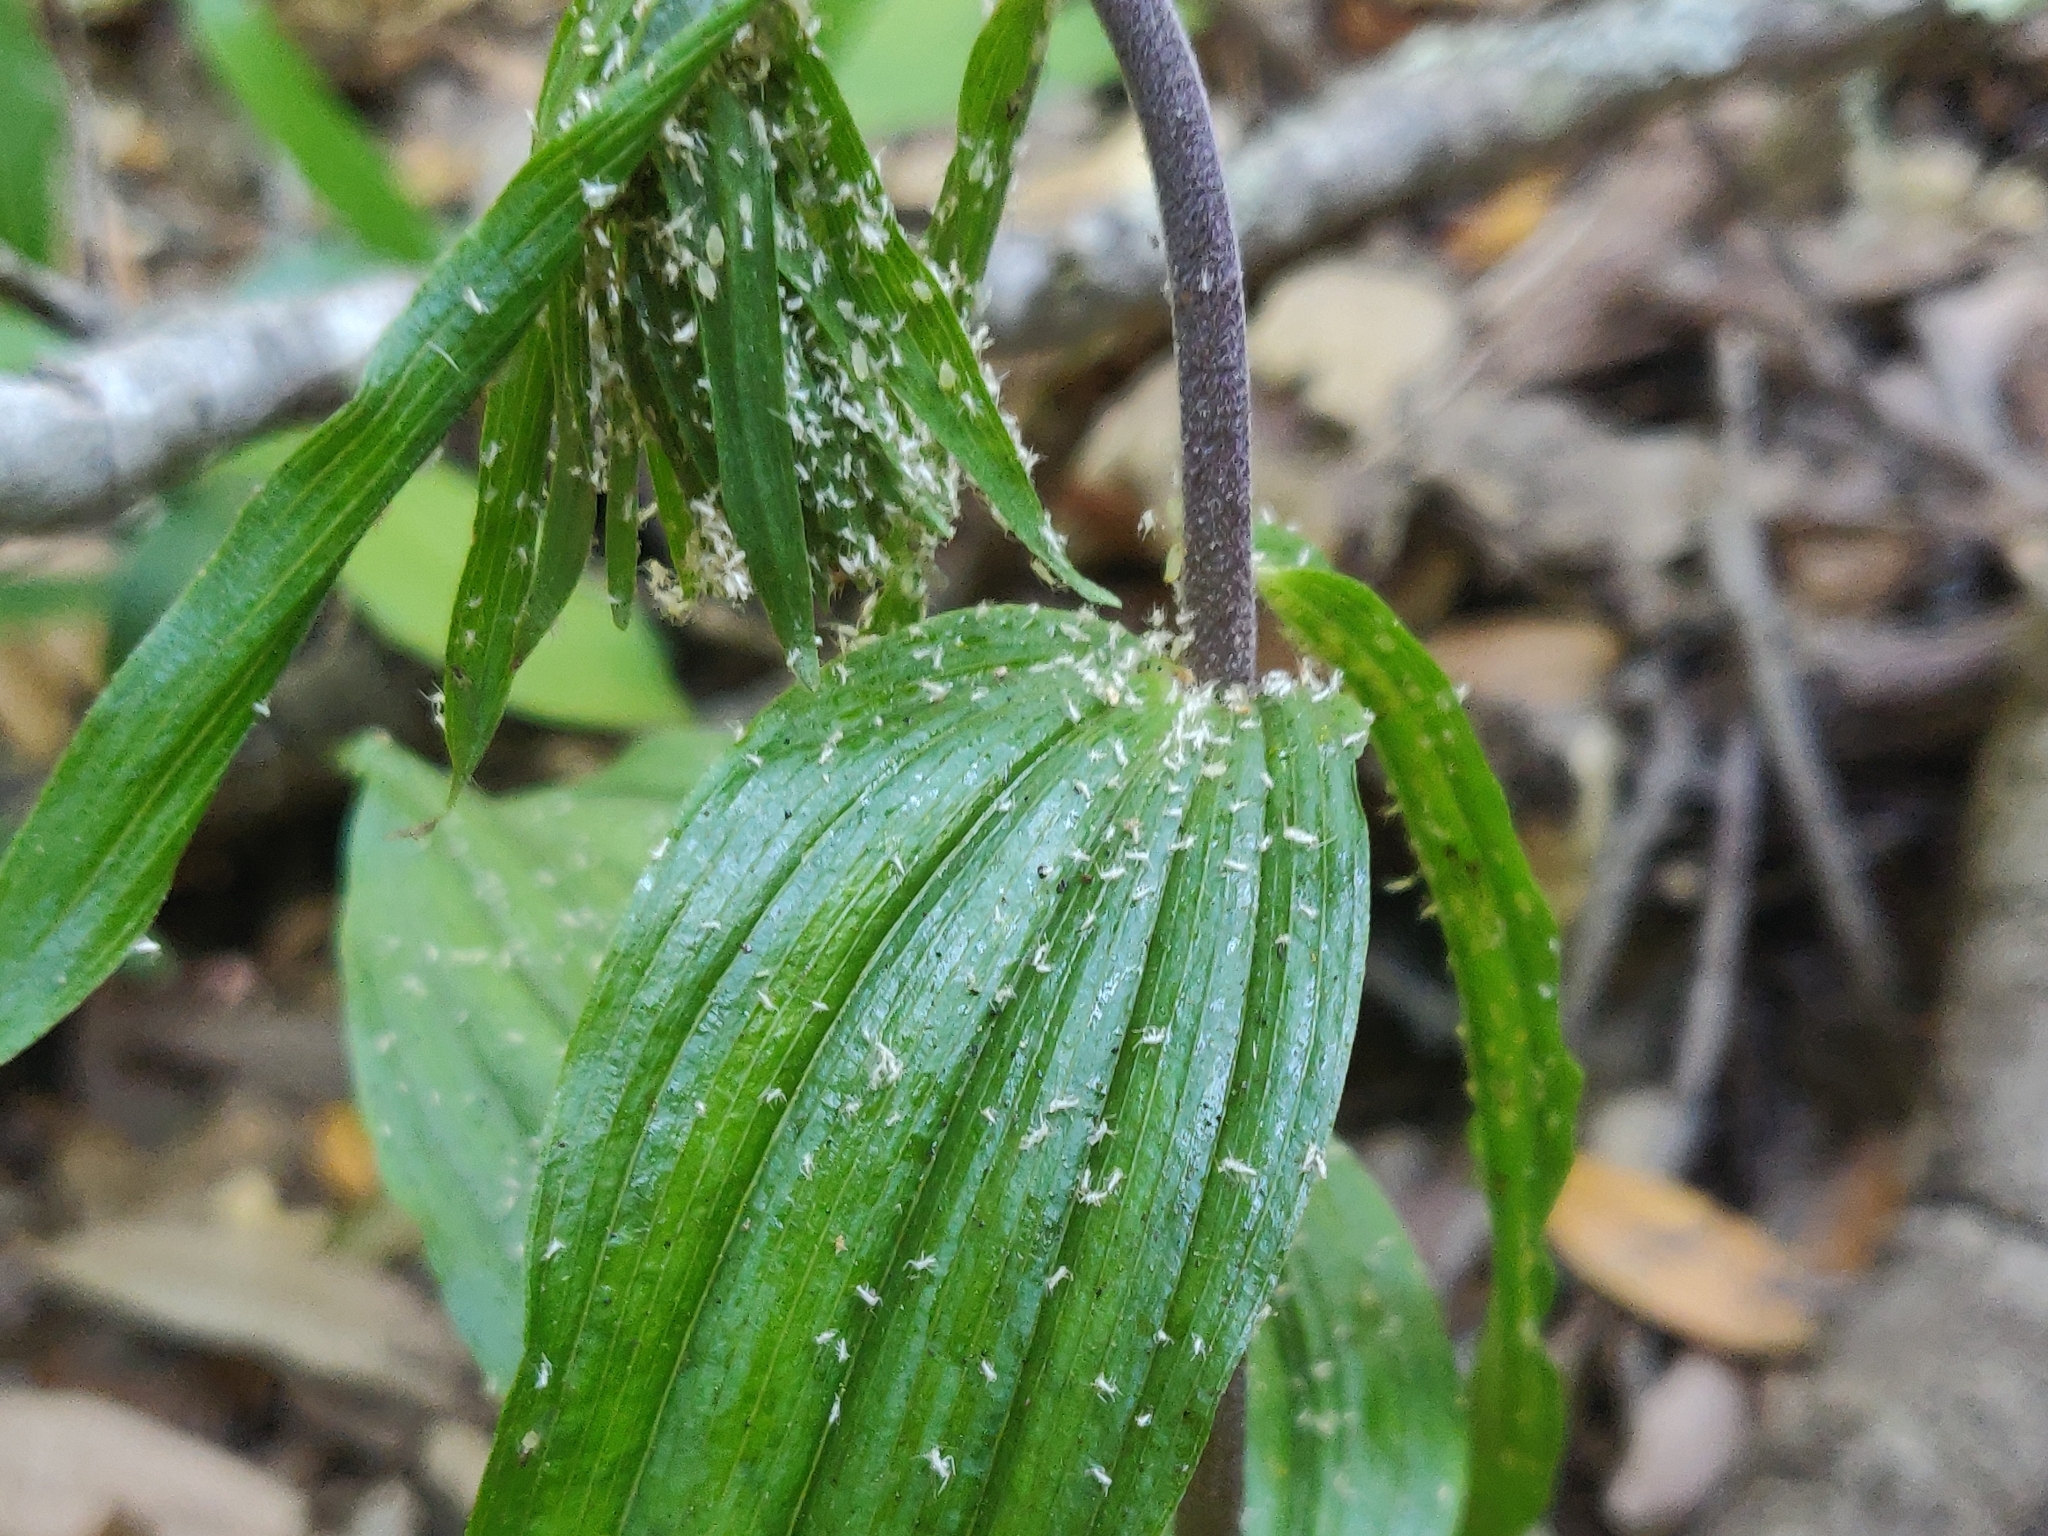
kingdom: Plantae
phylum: Tracheophyta
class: Liliopsida
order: Asparagales
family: Orchidaceae
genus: Epipactis
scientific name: Epipactis helleborine
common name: Broad-leaved helleborine
